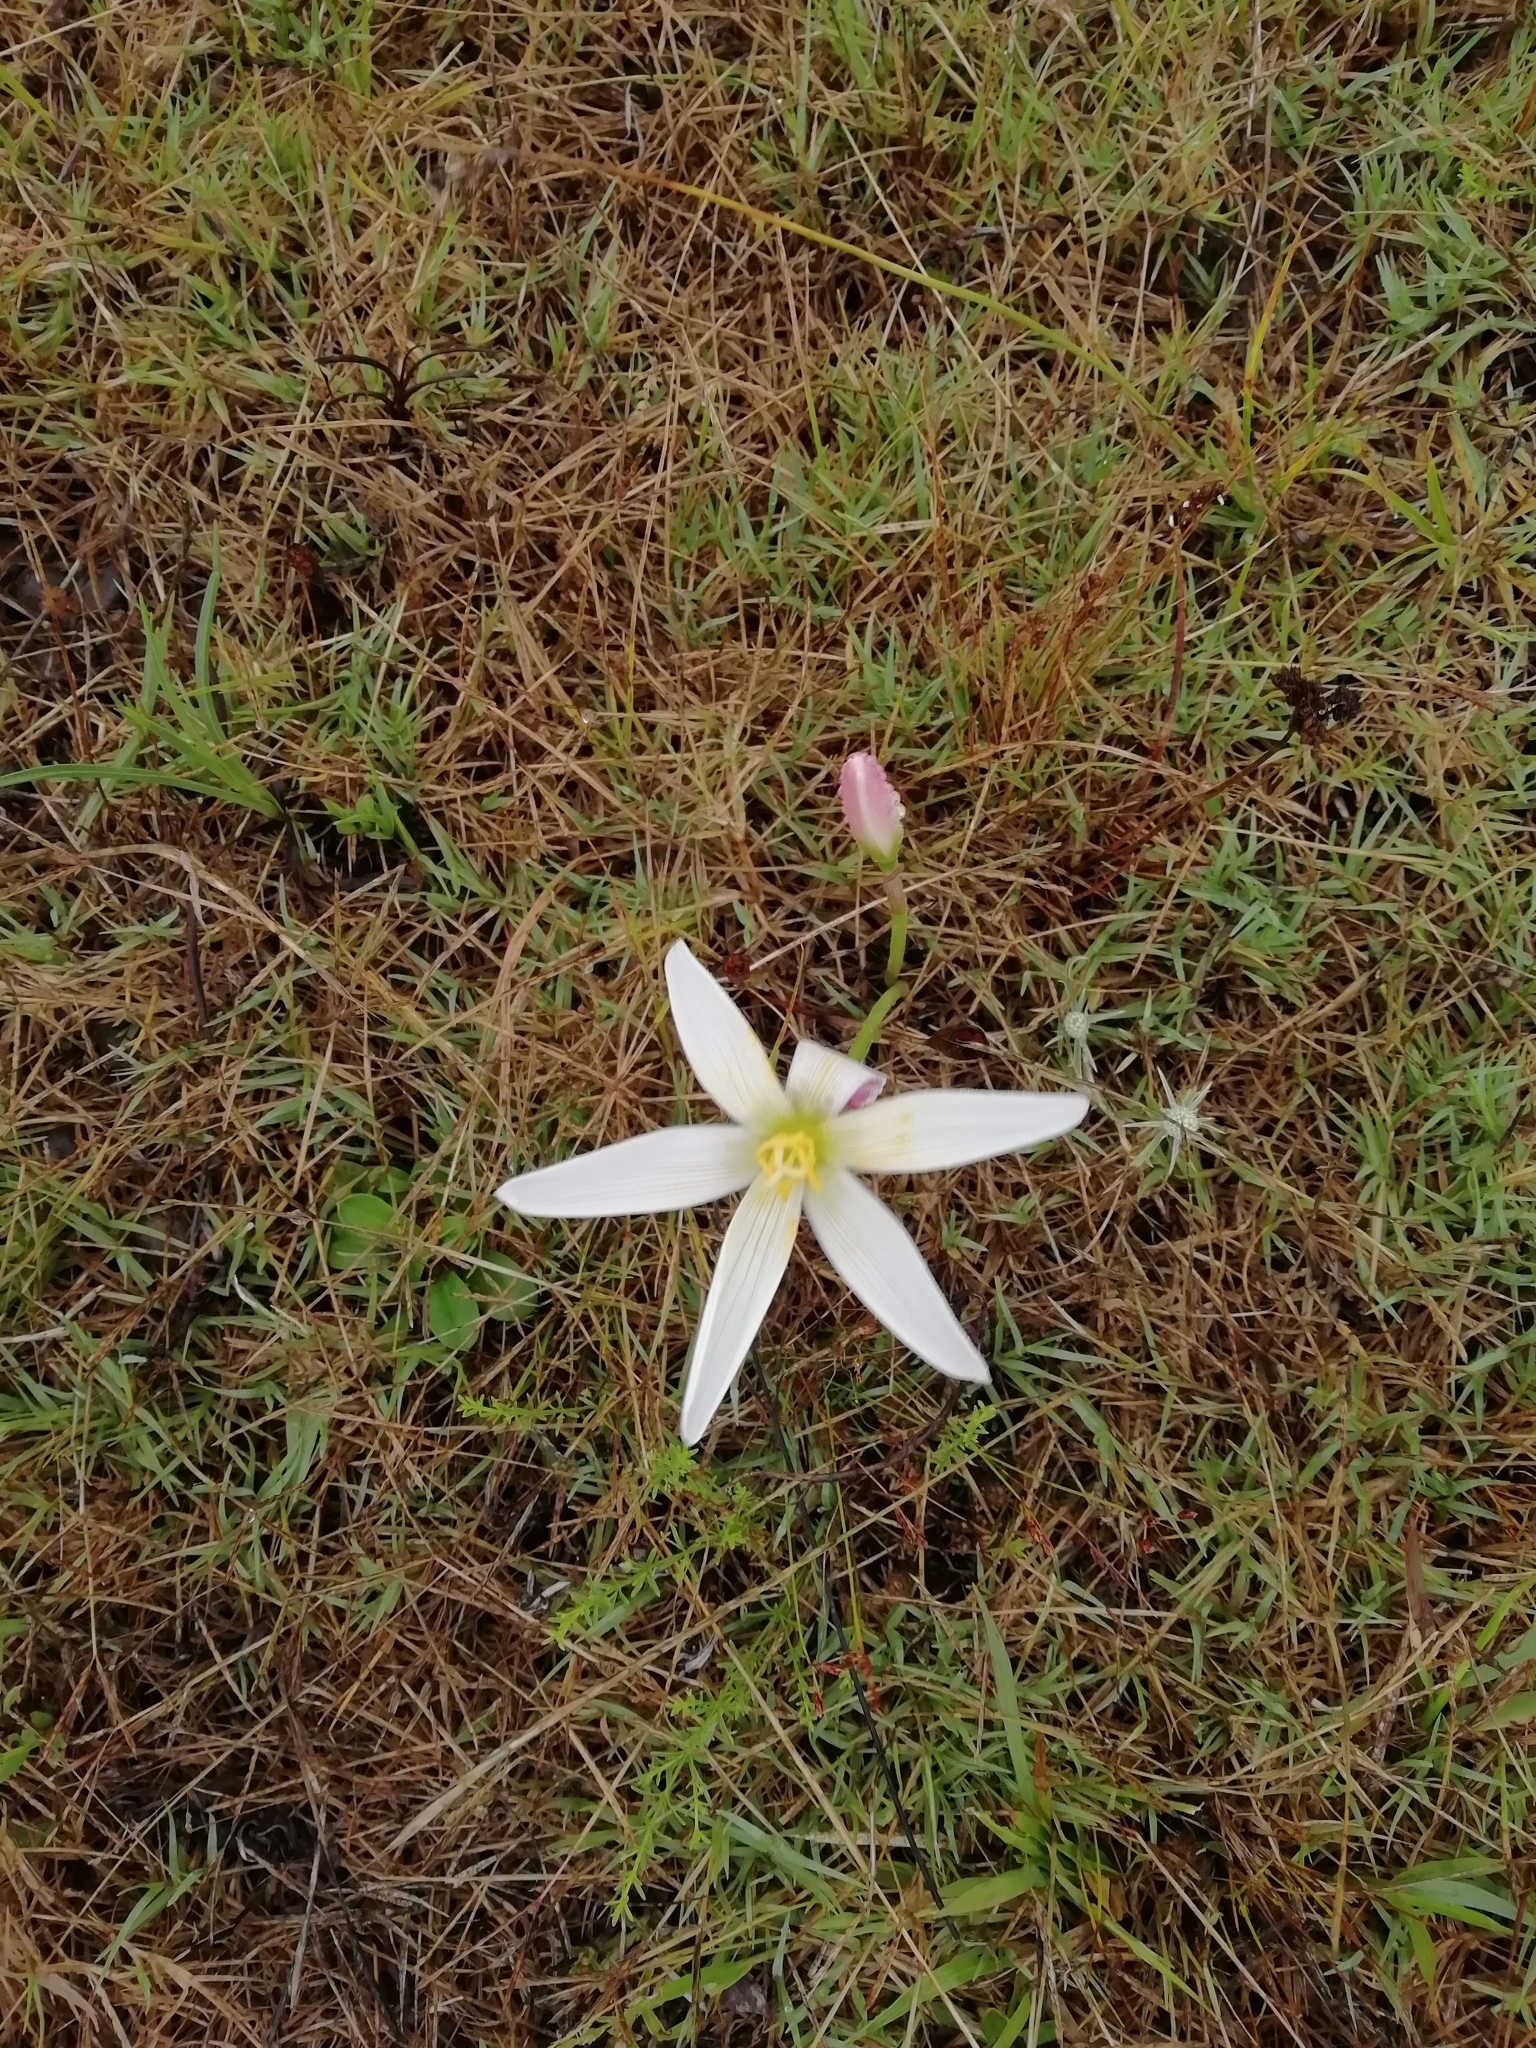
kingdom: Plantae
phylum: Tracheophyta
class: Liliopsida
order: Asparagales
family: Amaryllidaceae
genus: Zephyranthes
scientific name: Zephyranthes mesochloa
